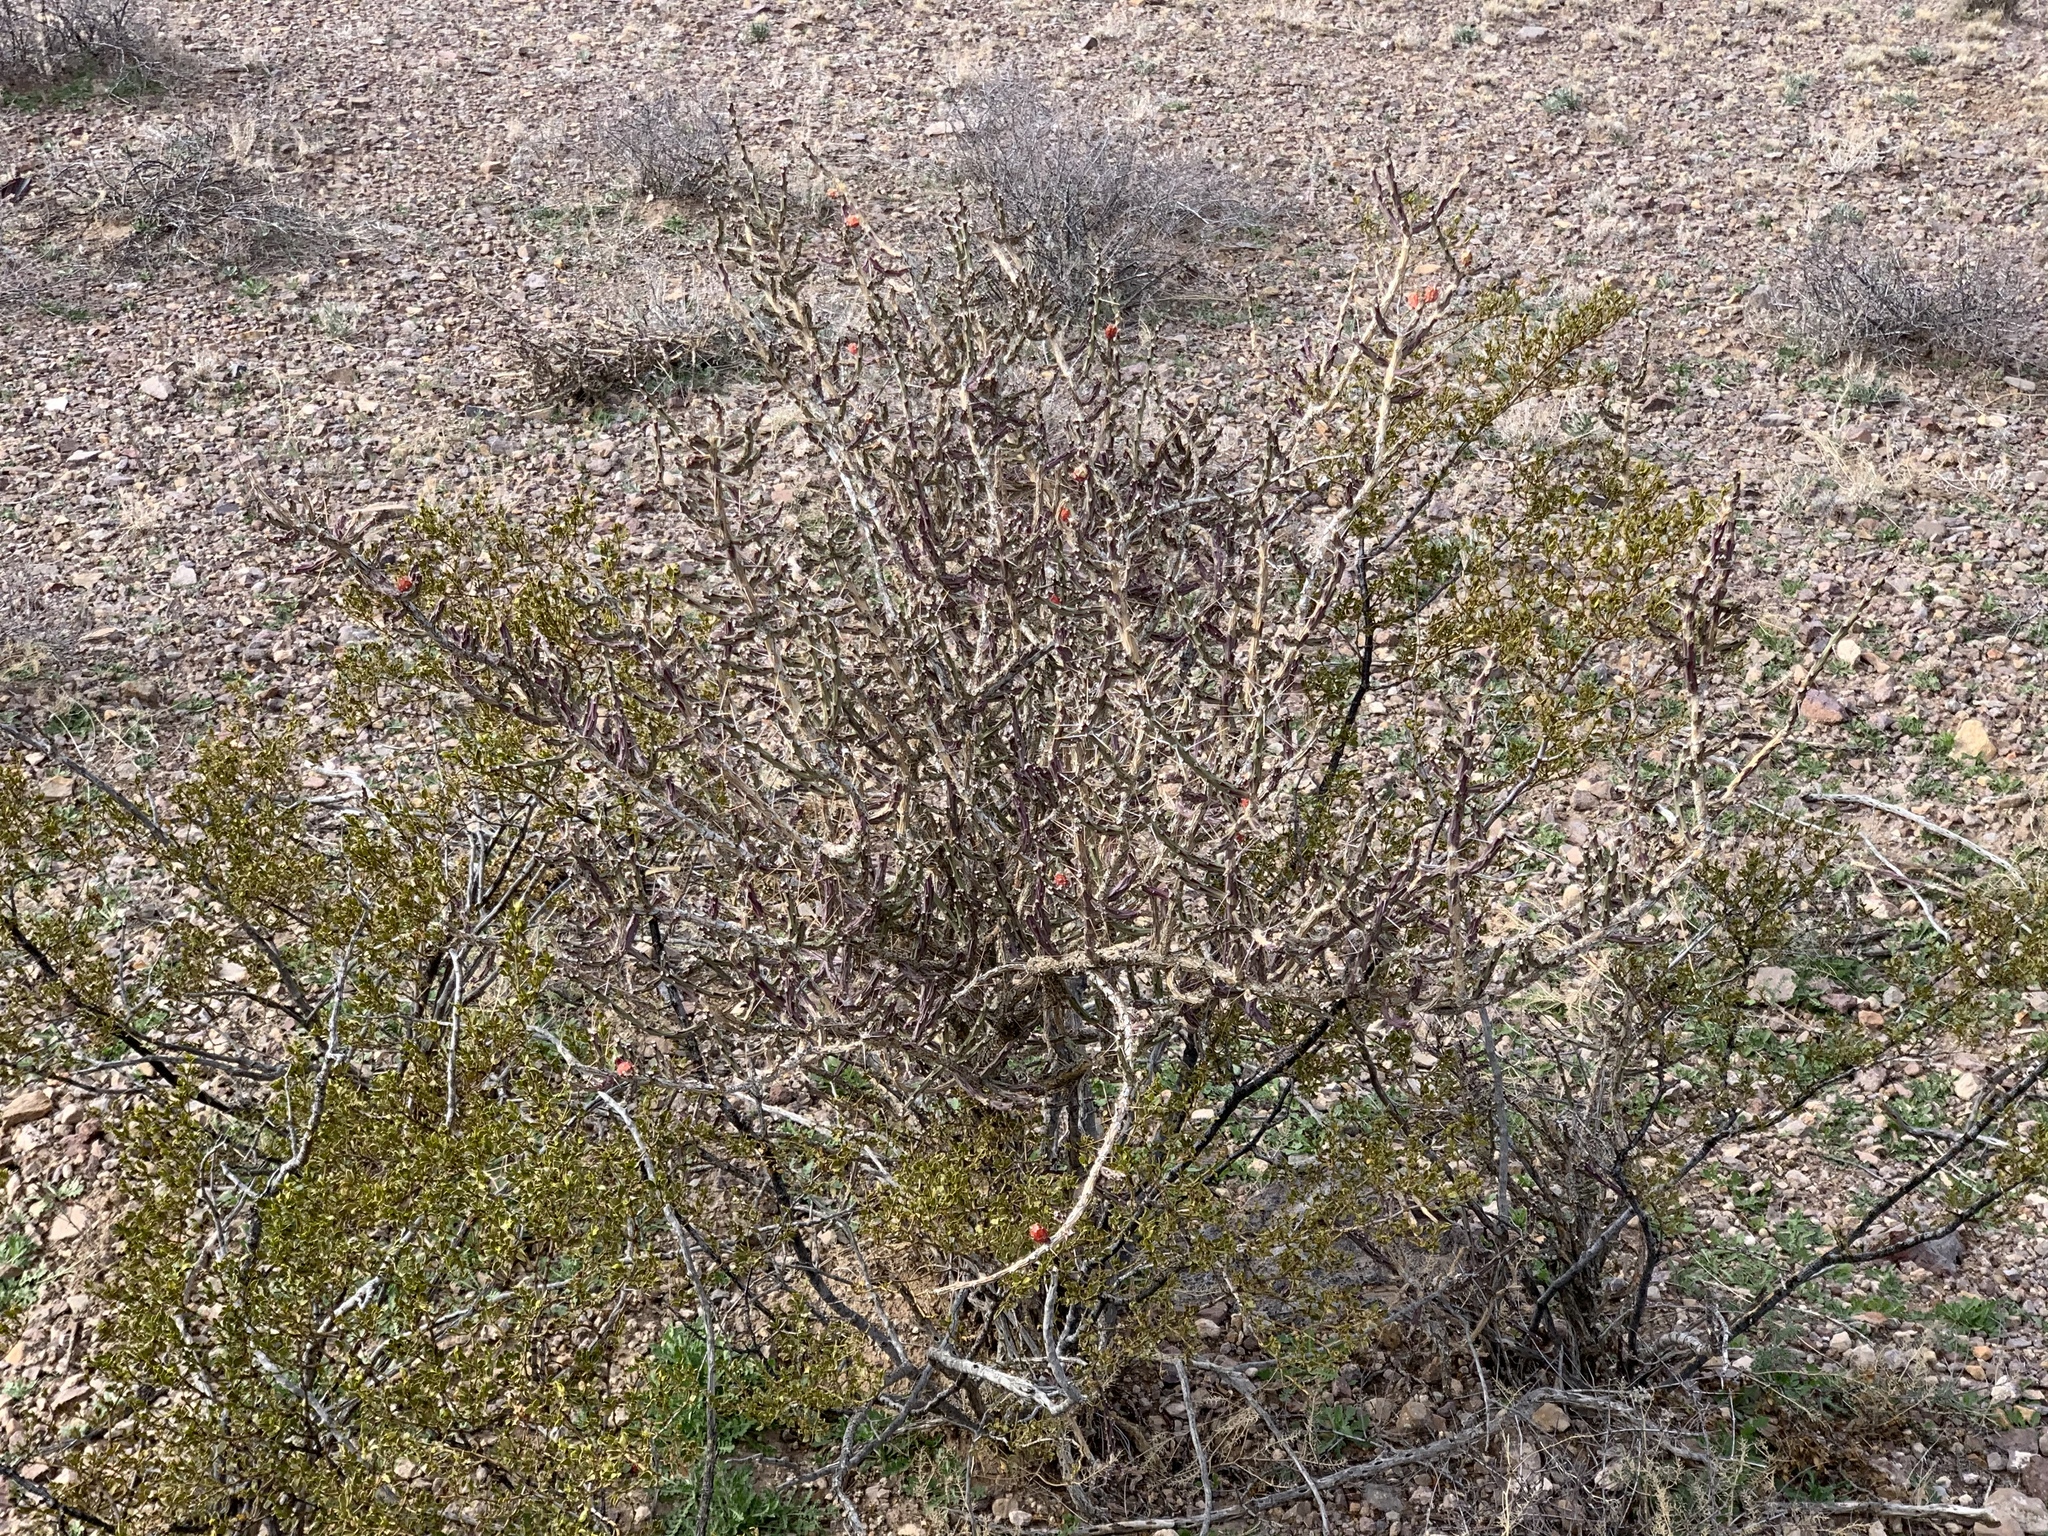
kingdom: Plantae
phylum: Tracheophyta
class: Magnoliopsida
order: Caryophyllales
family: Cactaceae
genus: Cylindropuntia
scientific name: Cylindropuntia leptocaulis
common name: Christmas cactus
